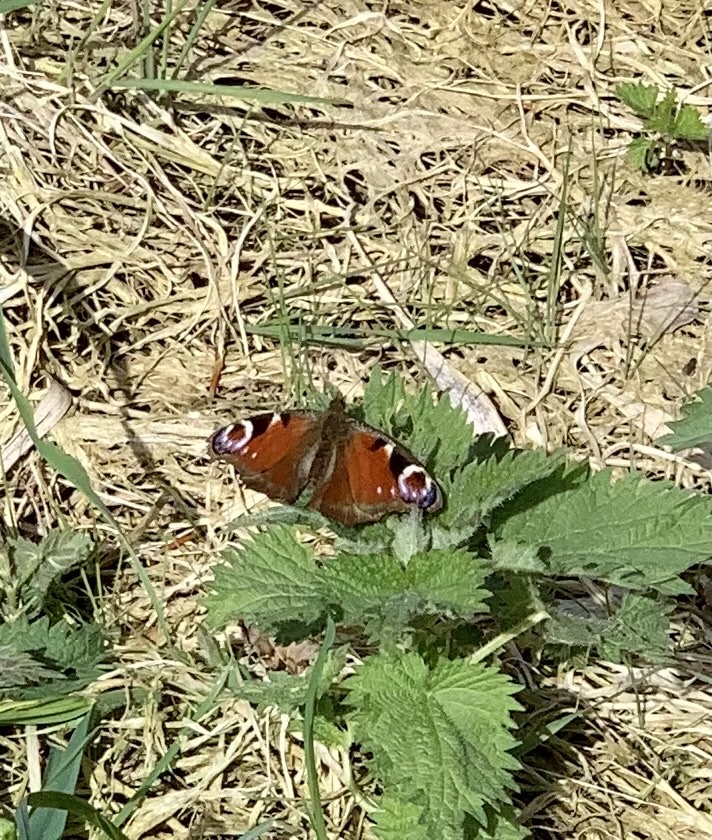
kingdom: Animalia
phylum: Arthropoda
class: Insecta
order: Lepidoptera
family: Nymphalidae
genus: Aglais
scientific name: Aglais io
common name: Peacock
